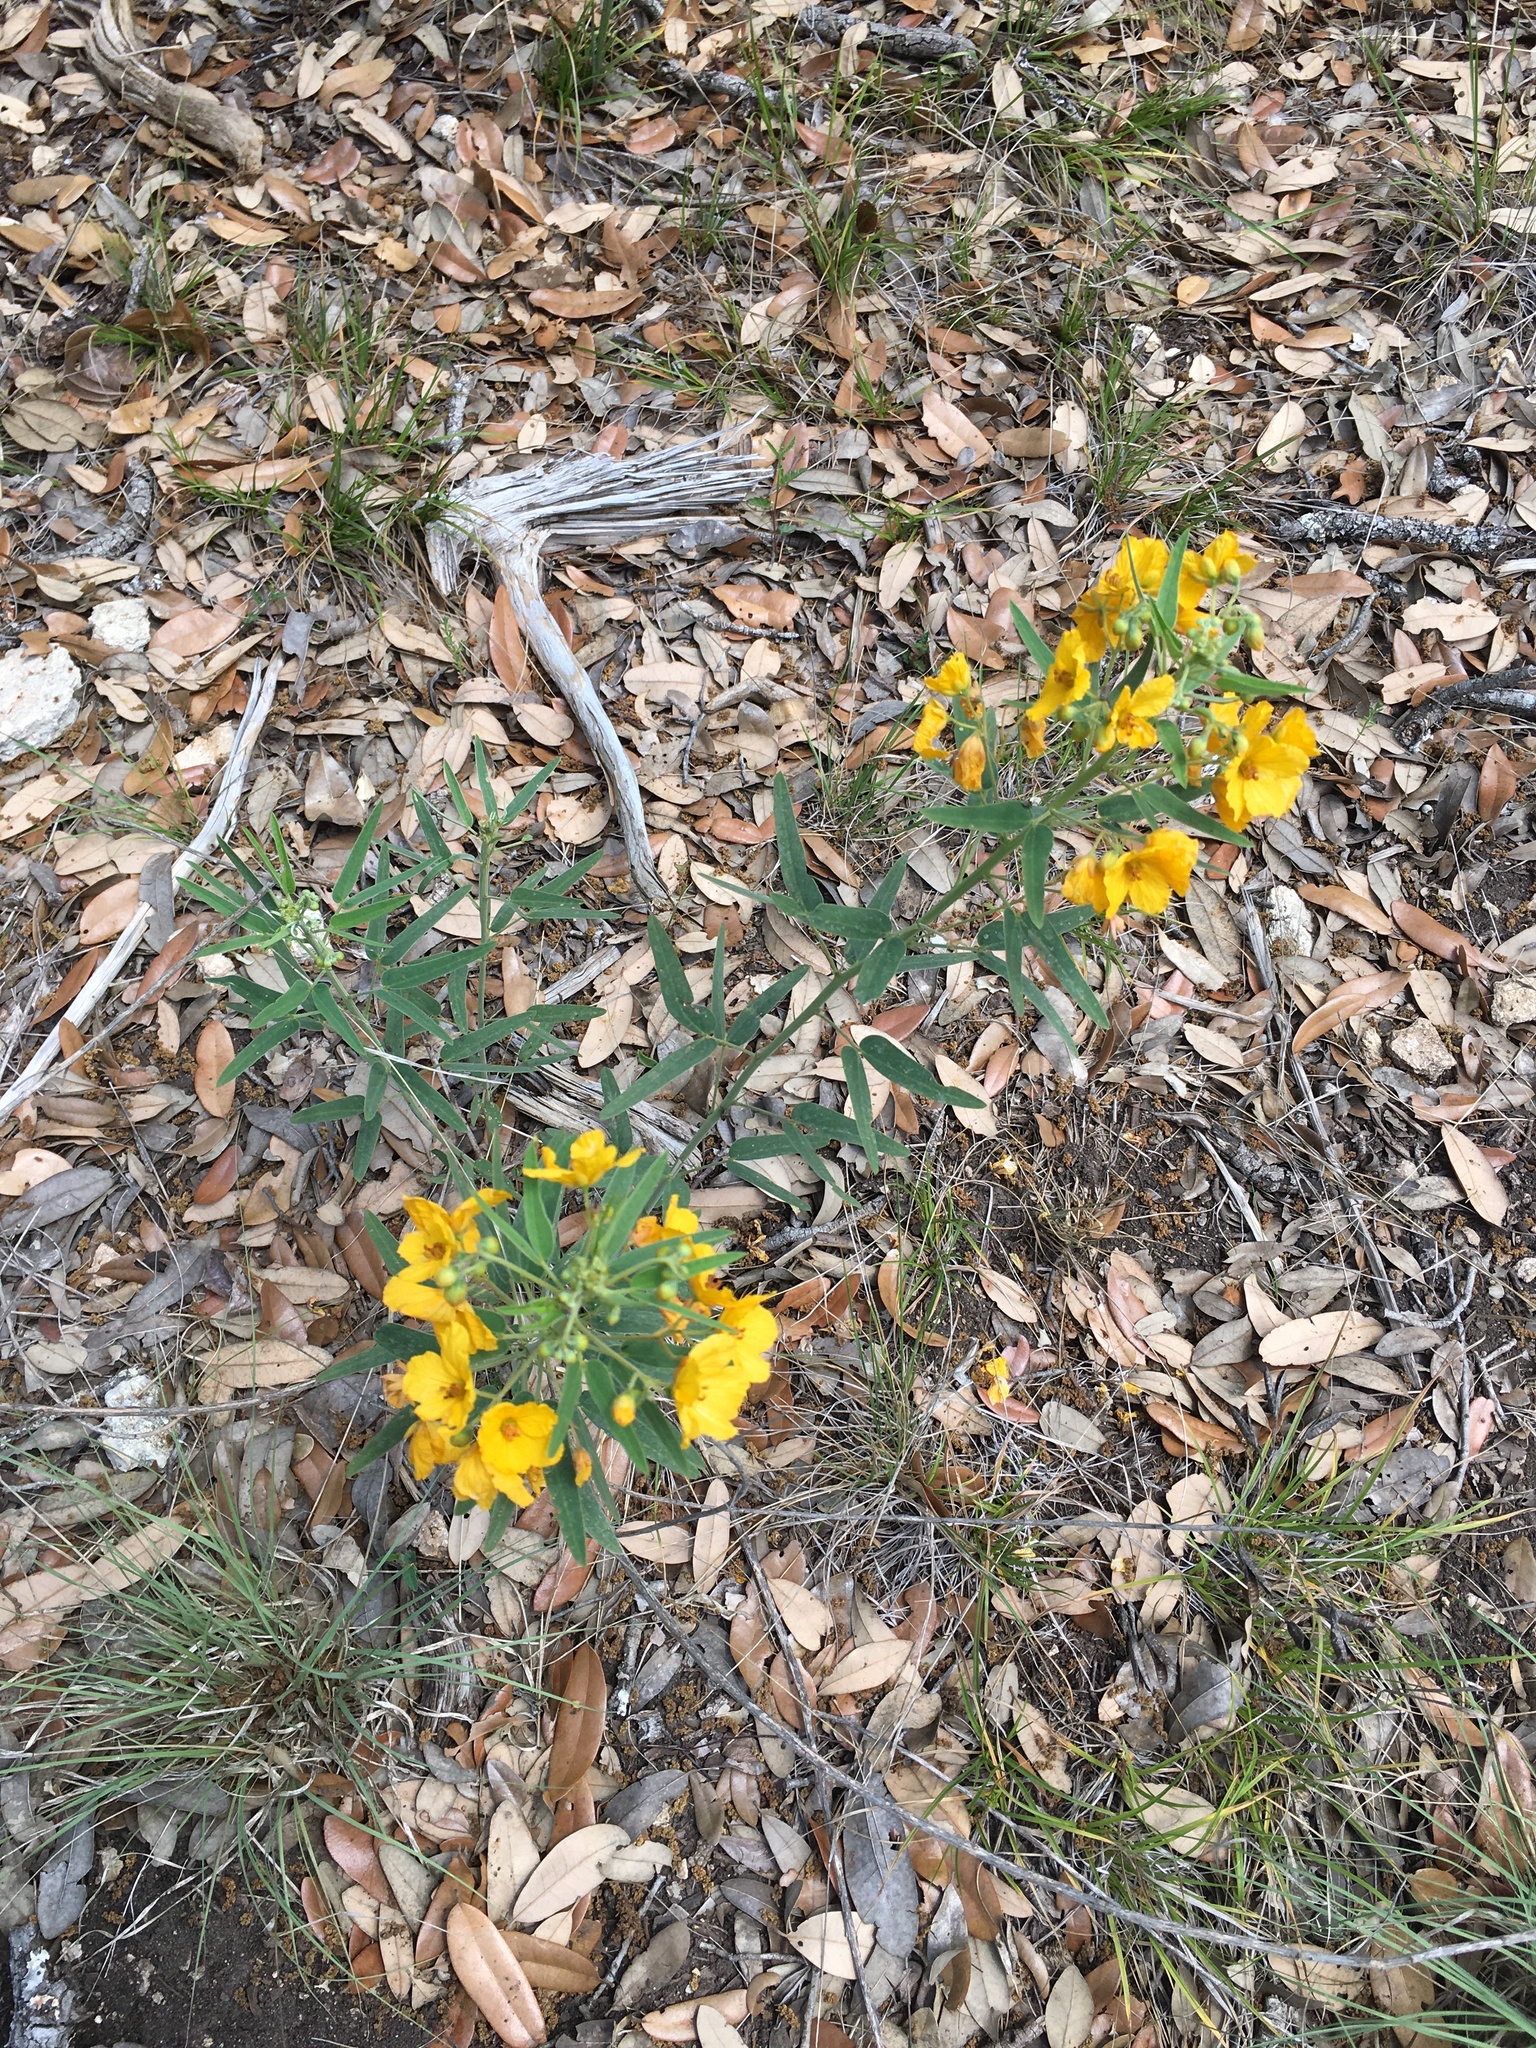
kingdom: Plantae
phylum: Tracheophyta
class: Magnoliopsida
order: Fabales
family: Fabaceae
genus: Senna
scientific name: Senna roemeriana
